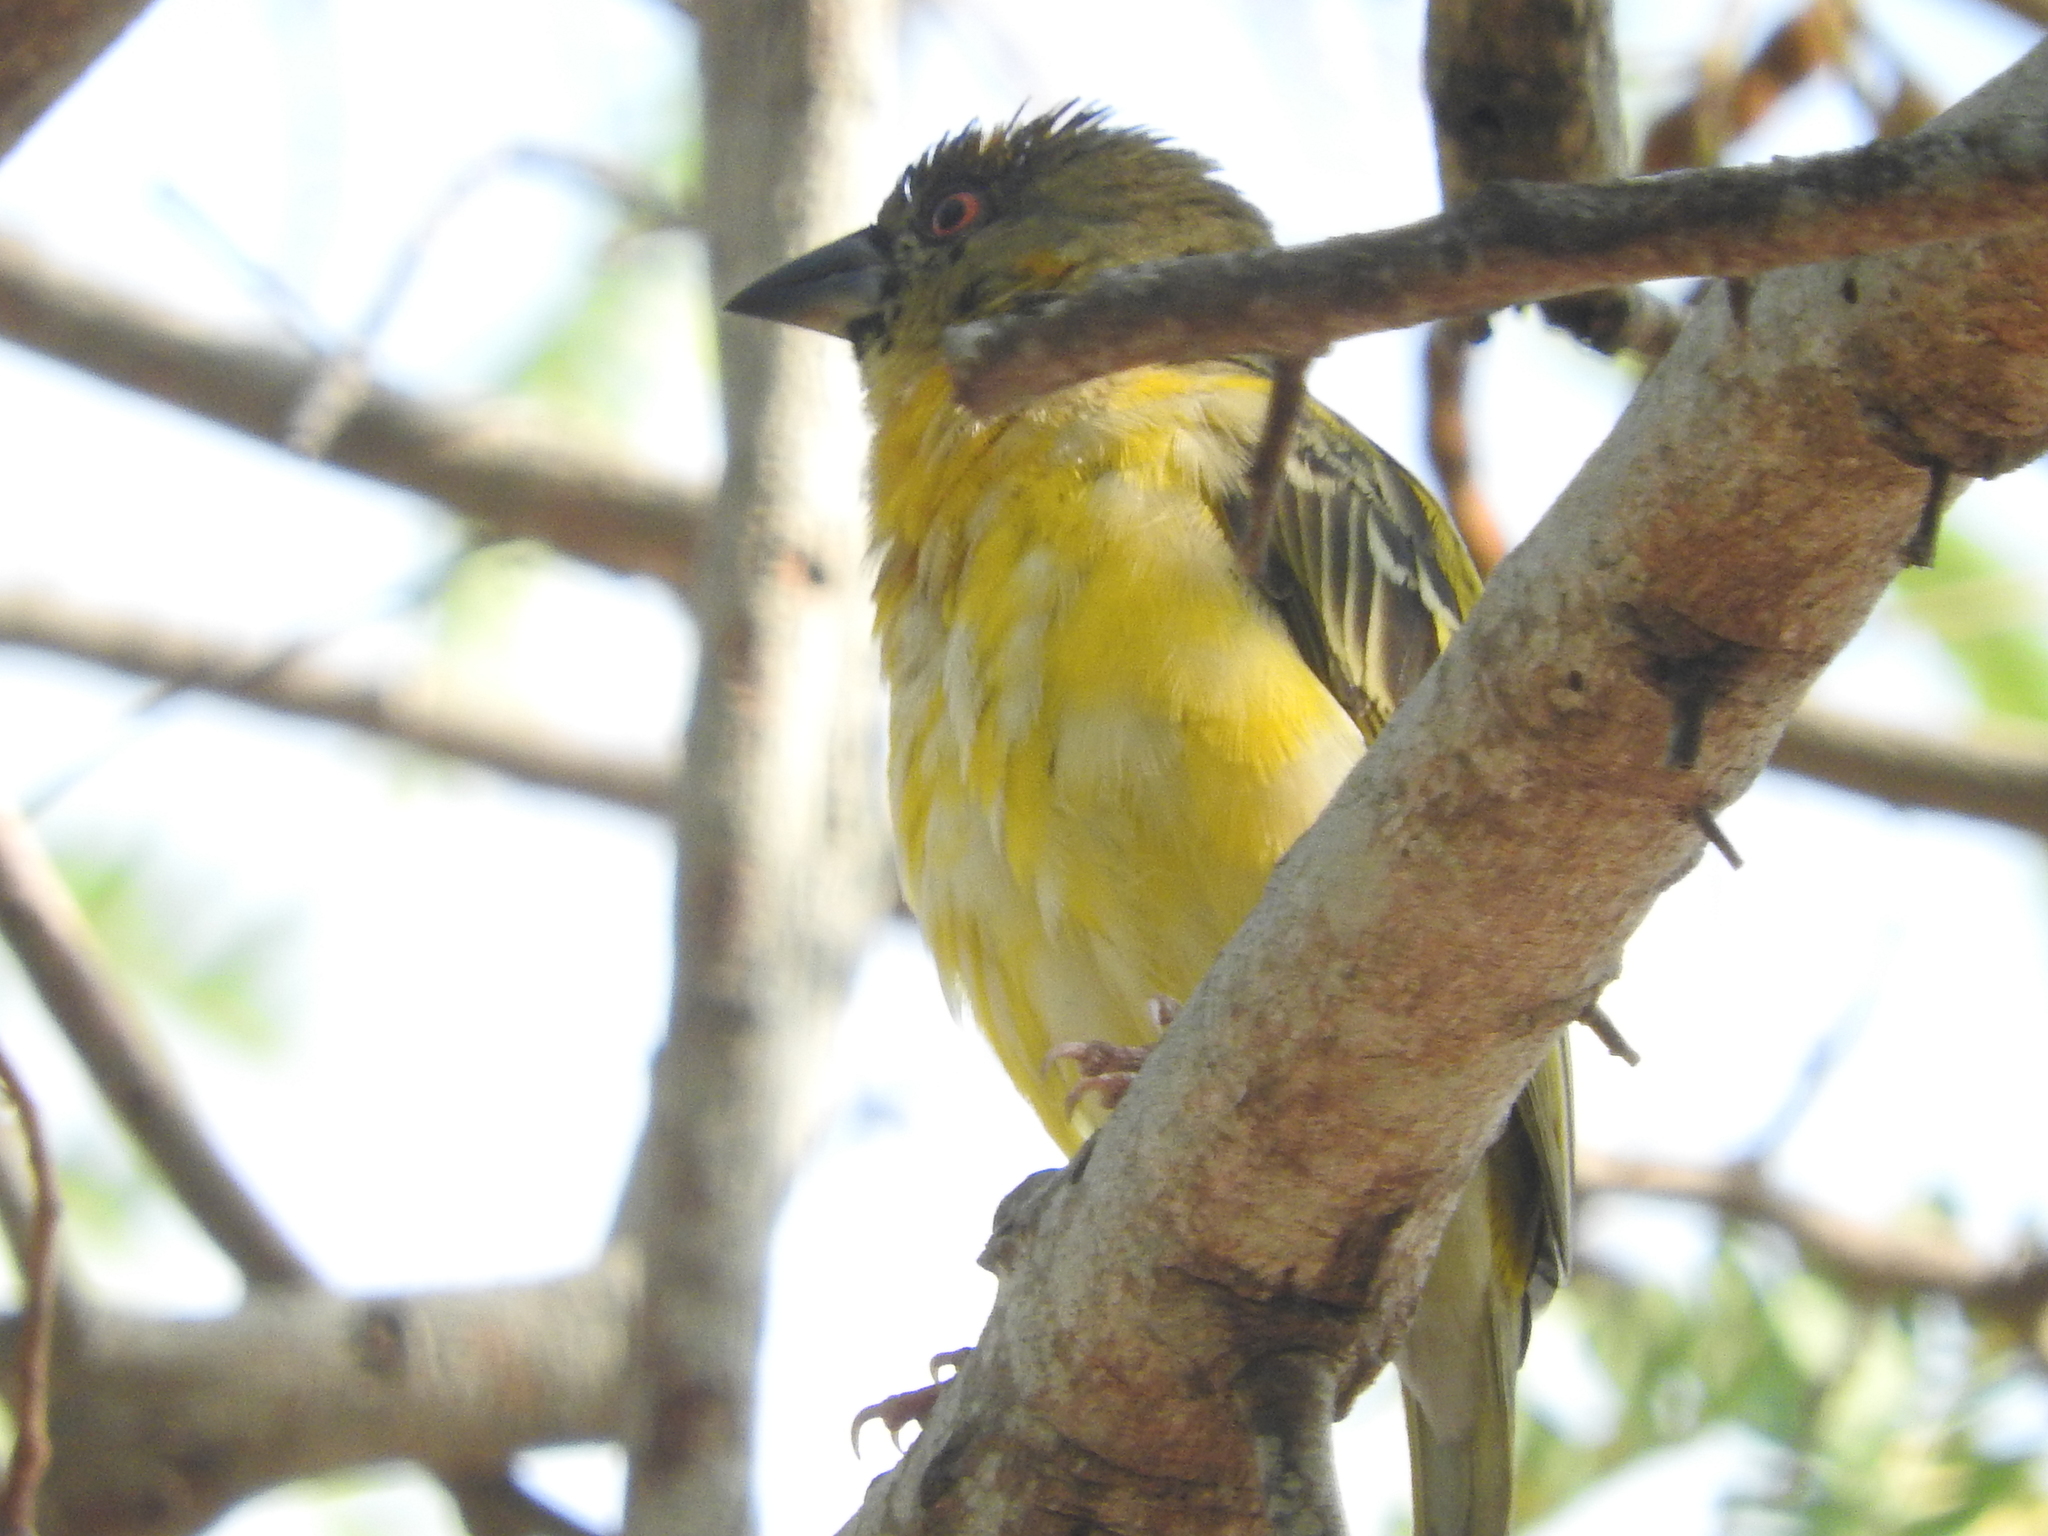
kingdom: Animalia
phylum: Chordata
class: Aves
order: Passeriformes
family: Ploceidae
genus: Ploceus
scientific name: Ploceus velatus
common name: Southern masked weaver
